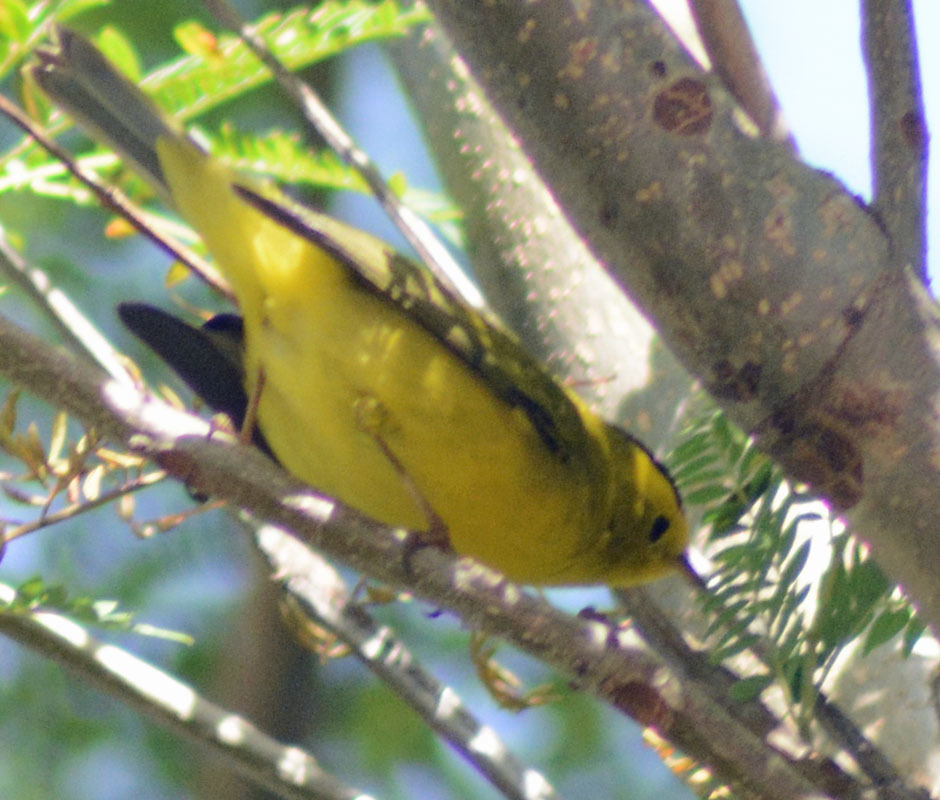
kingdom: Animalia
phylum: Chordata
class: Aves
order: Passeriformes
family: Parulidae
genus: Cardellina
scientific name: Cardellina pusilla
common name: Wilson's warbler
